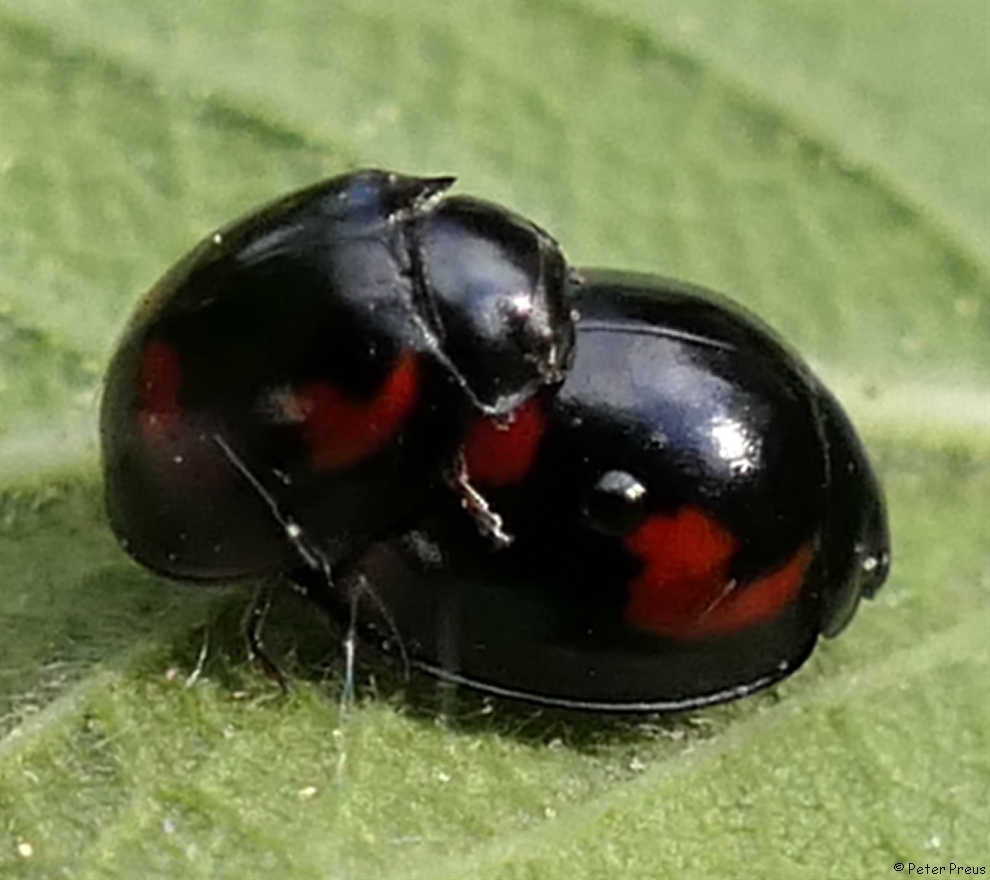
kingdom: Animalia
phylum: Arthropoda
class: Insecta
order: Coleoptera
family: Coccinellidae
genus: Brumus
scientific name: Brumus quadripustulatus
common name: Ladybird beetle
